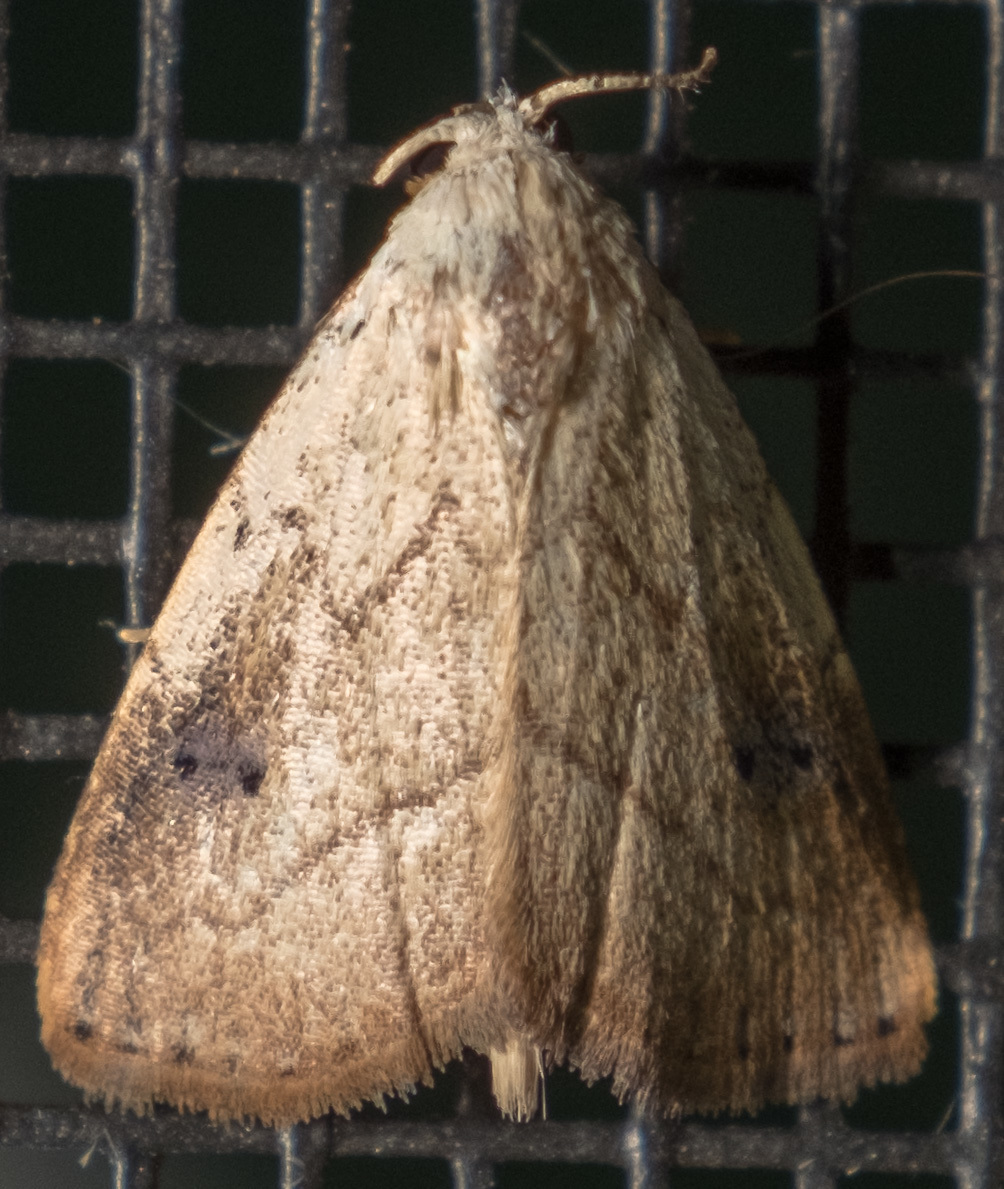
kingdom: Animalia
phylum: Arthropoda
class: Insecta
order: Lepidoptera
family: Erebidae
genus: Rivula
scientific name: Rivula propinqualis
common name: Spotted grass moth
